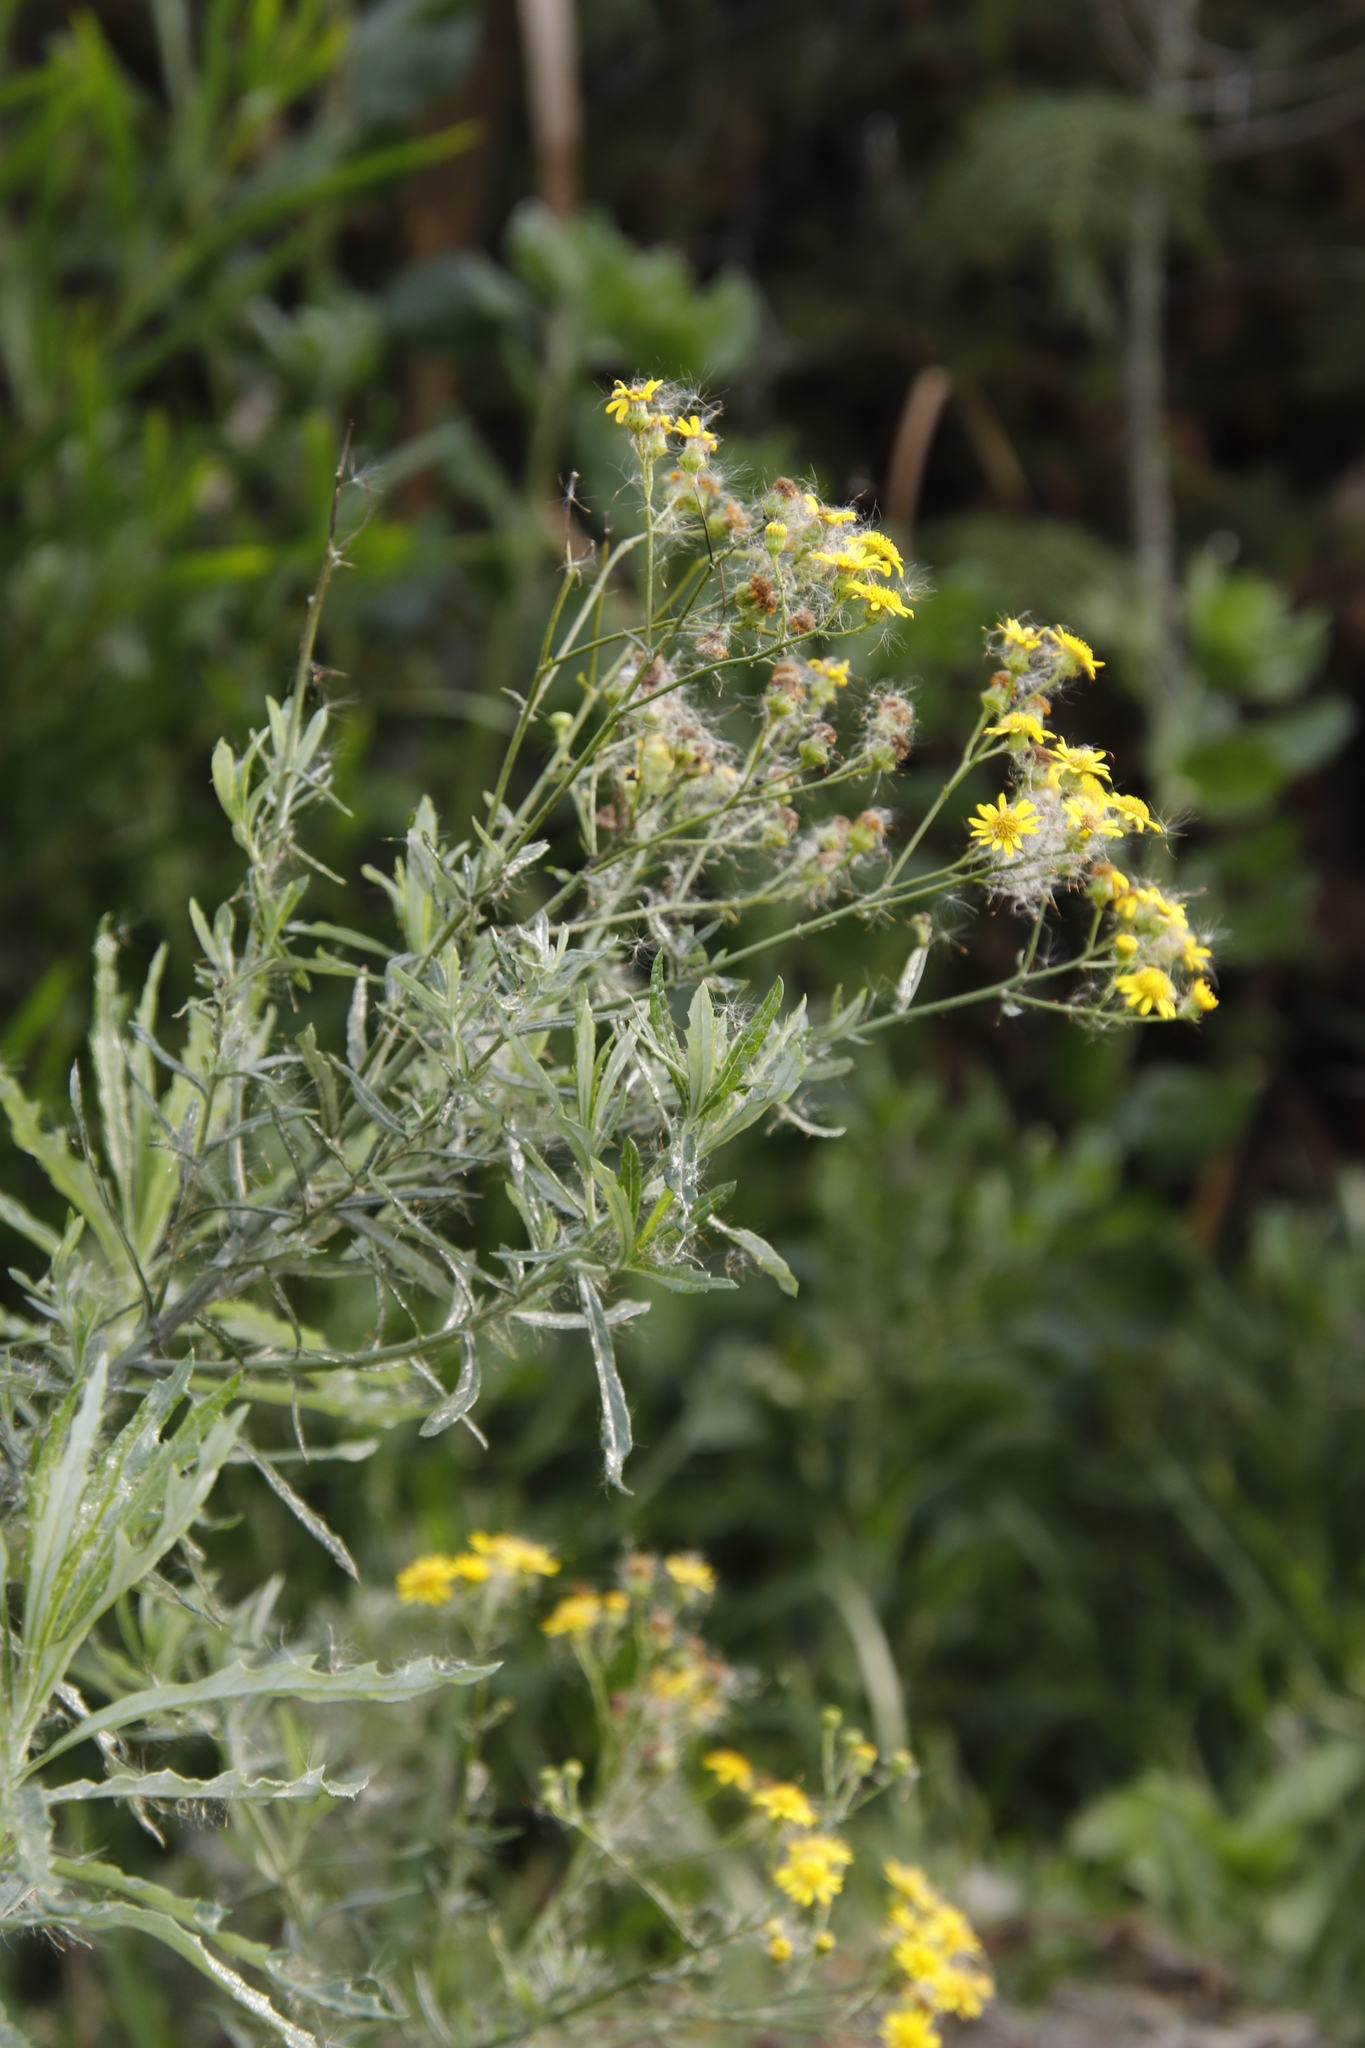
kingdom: Plantae
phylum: Tracheophyta
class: Magnoliopsida
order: Asterales
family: Asteraceae
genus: Senecio
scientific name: Senecio pterophorus
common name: Shoddy ragwort
